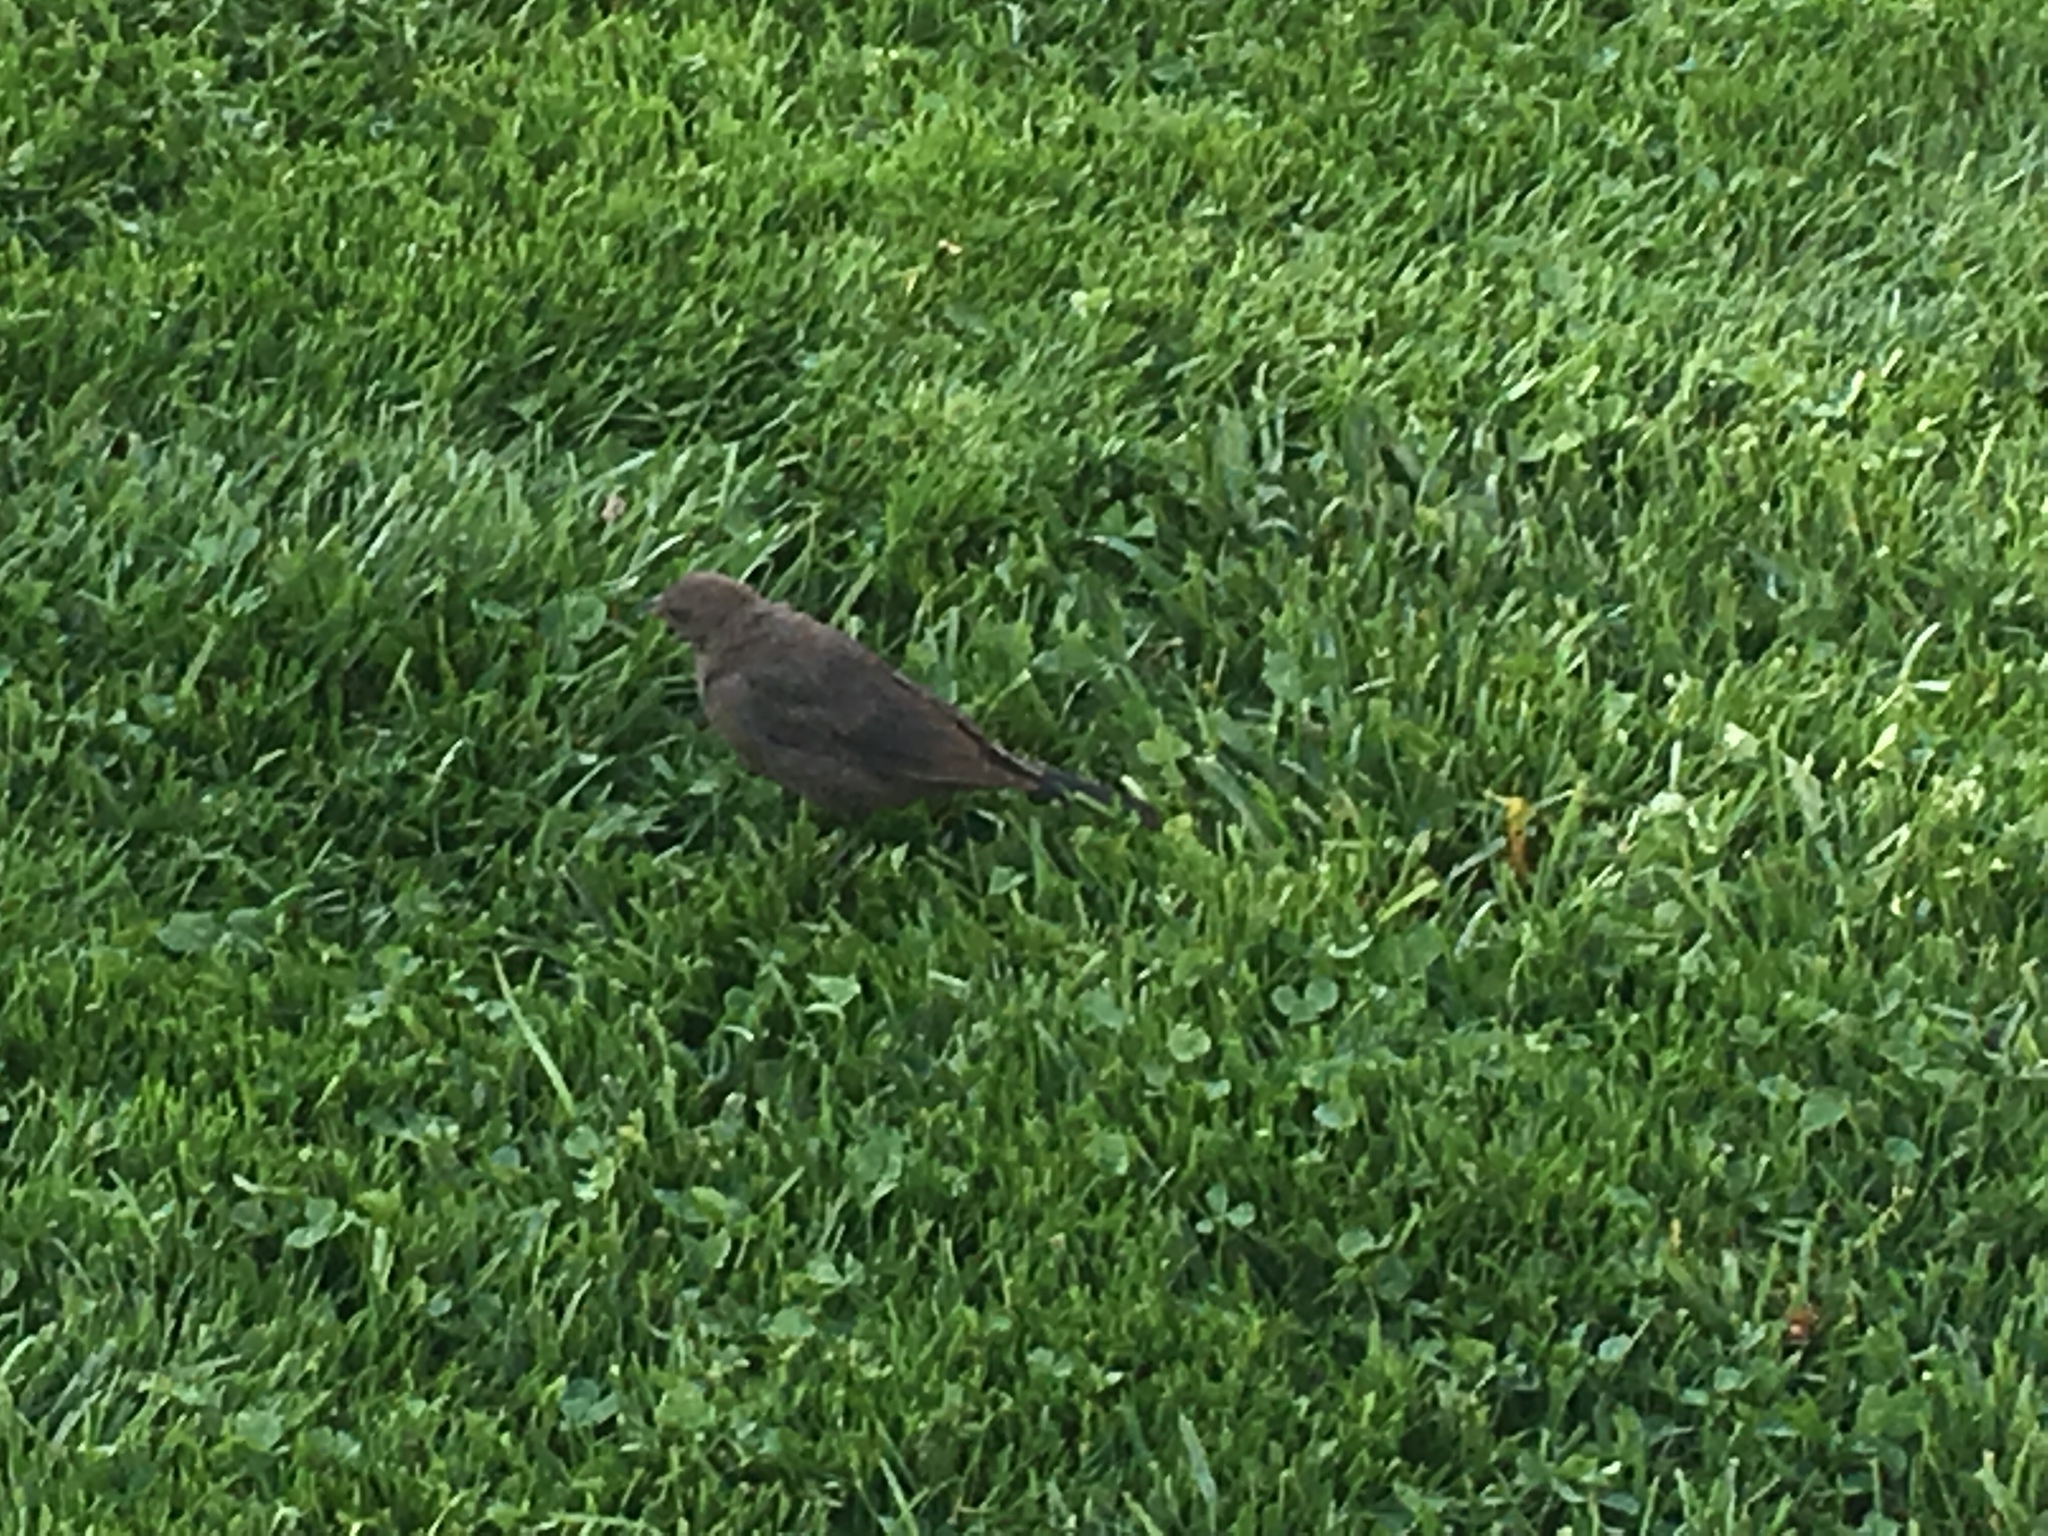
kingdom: Animalia
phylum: Chordata
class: Aves
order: Passeriformes
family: Icteridae
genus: Euphagus
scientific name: Euphagus cyanocephalus
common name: Brewer's blackbird
